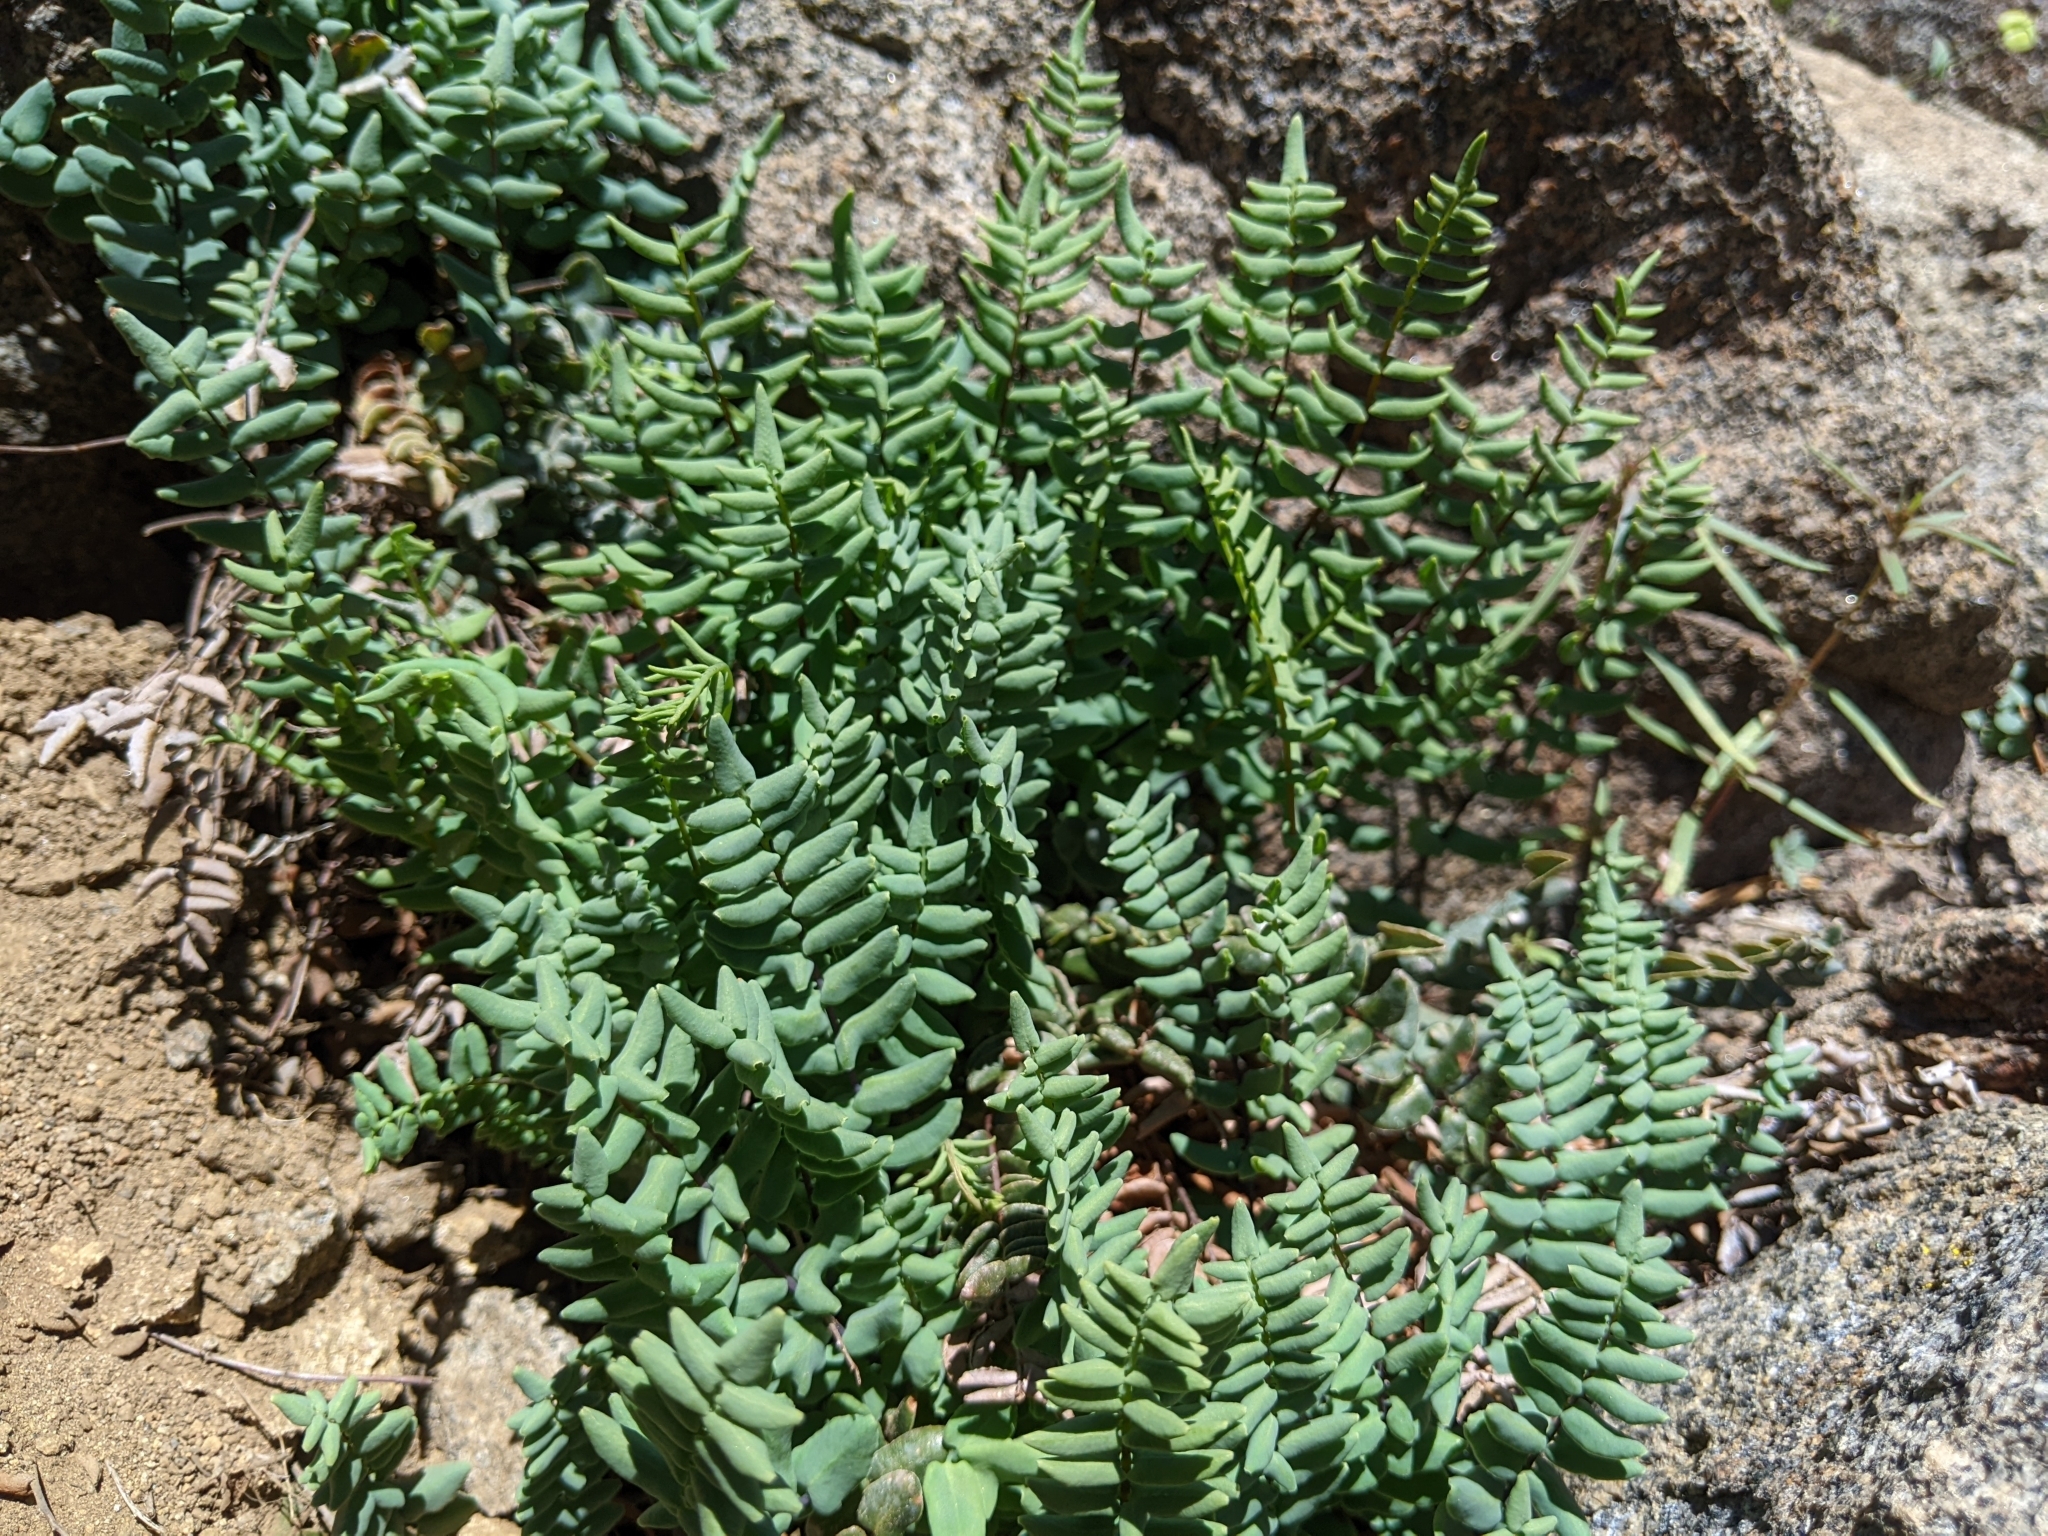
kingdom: Plantae
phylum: Tracheophyta
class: Polypodiopsida
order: Polypodiales
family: Pteridaceae
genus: Pellaea
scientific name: Pellaea bridgesii
